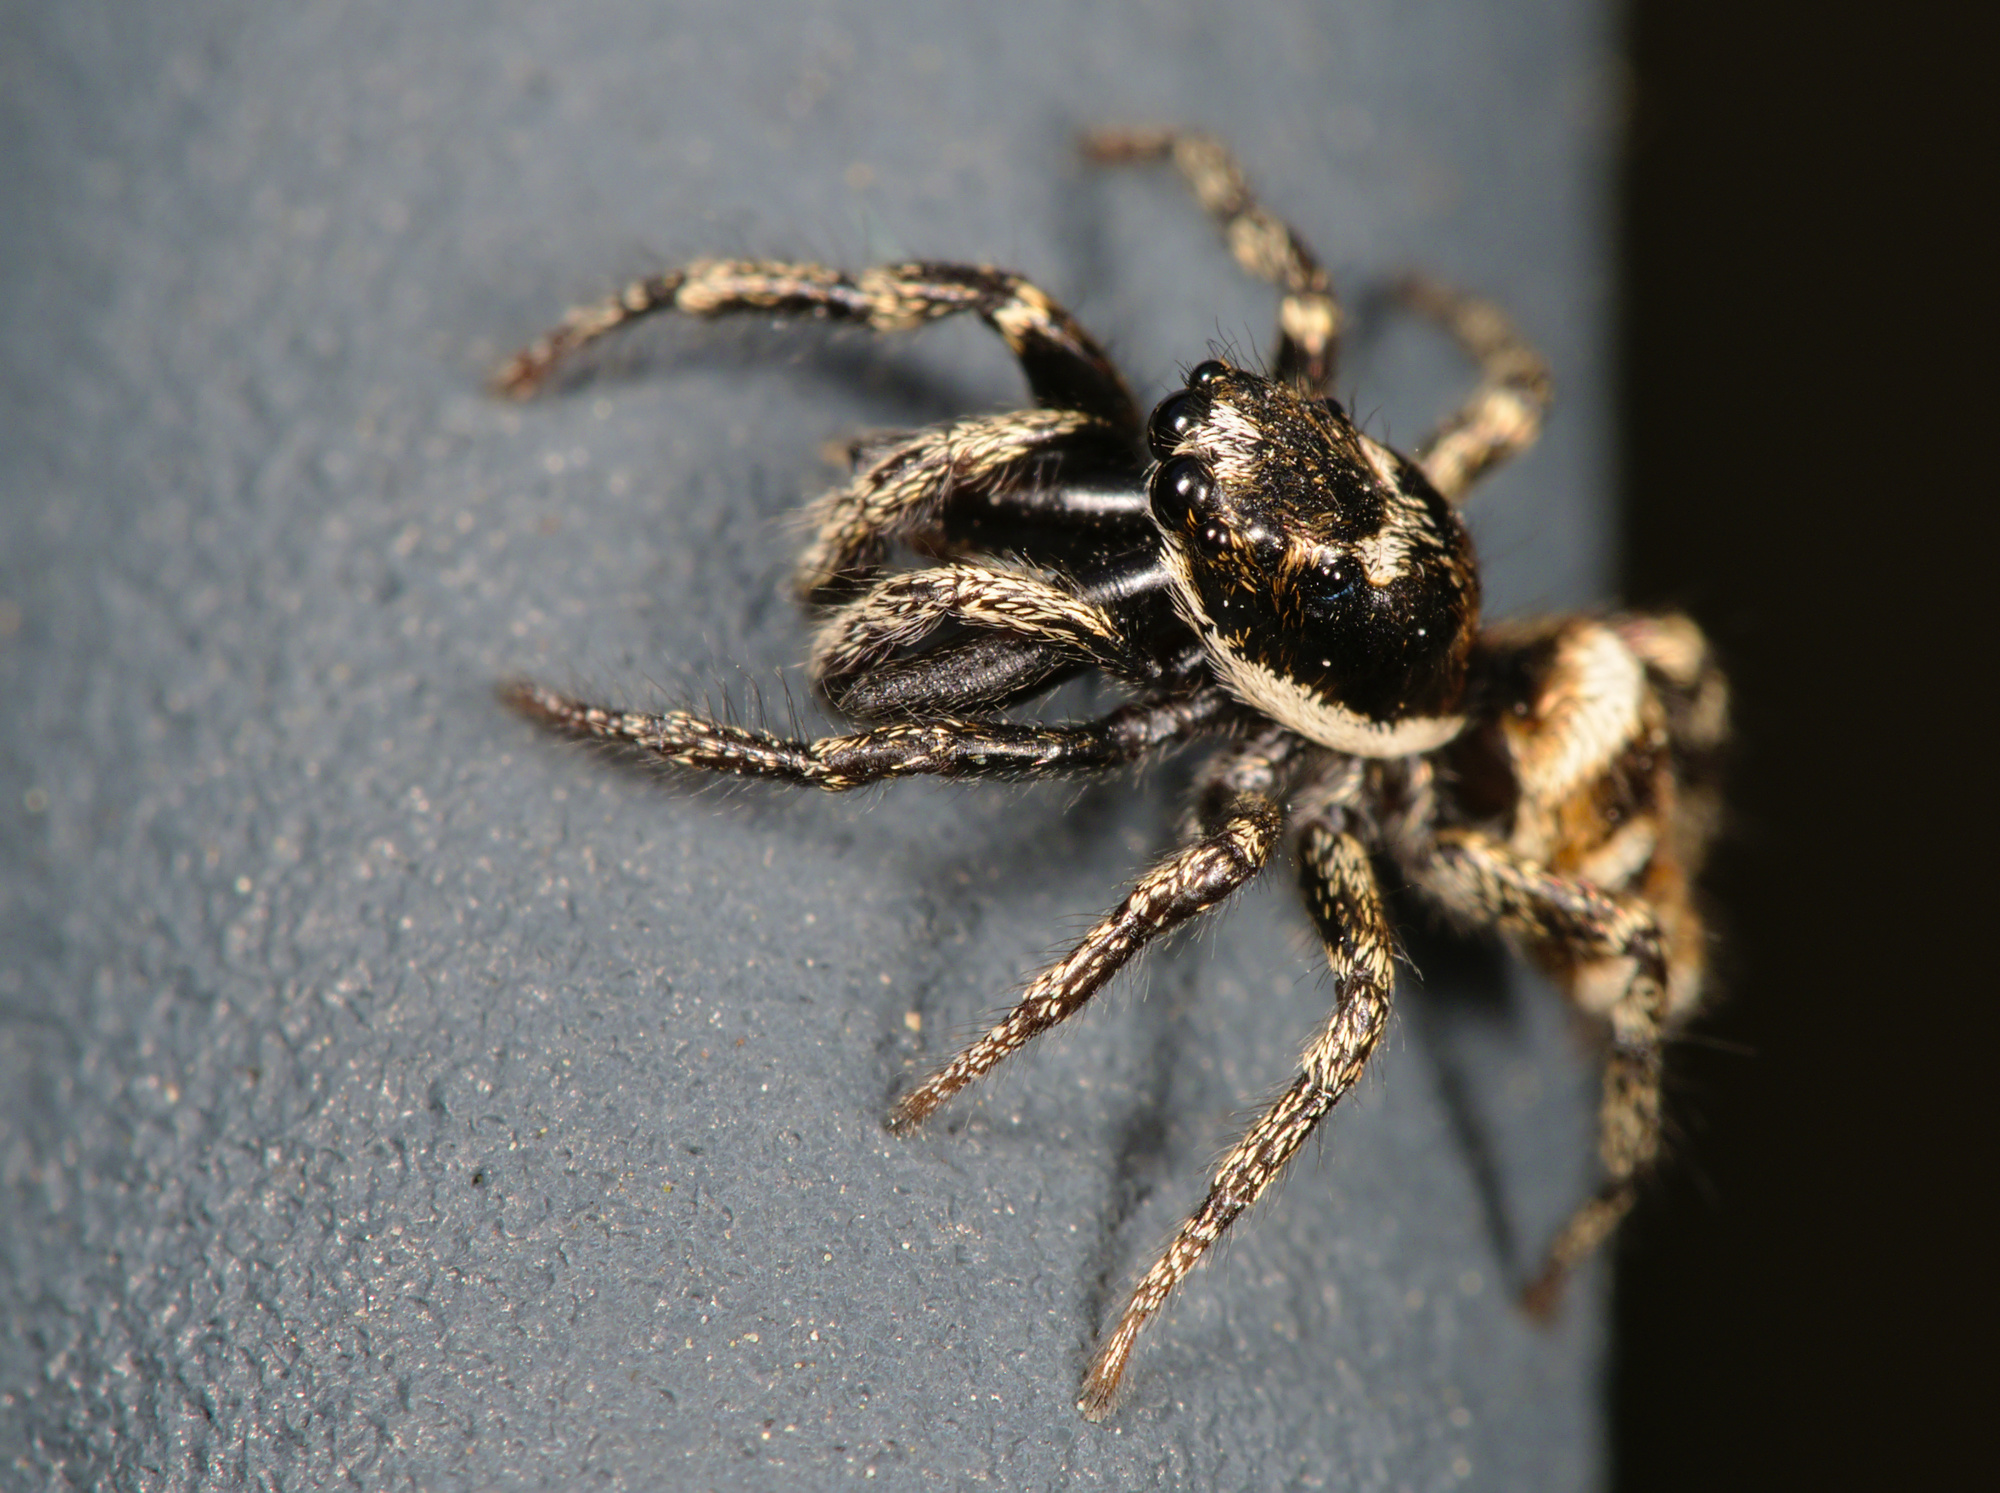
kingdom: Animalia
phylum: Arthropoda
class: Arachnida
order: Araneae
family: Salticidae
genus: Salticus
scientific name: Salticus scenicus
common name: Zebra jumper
